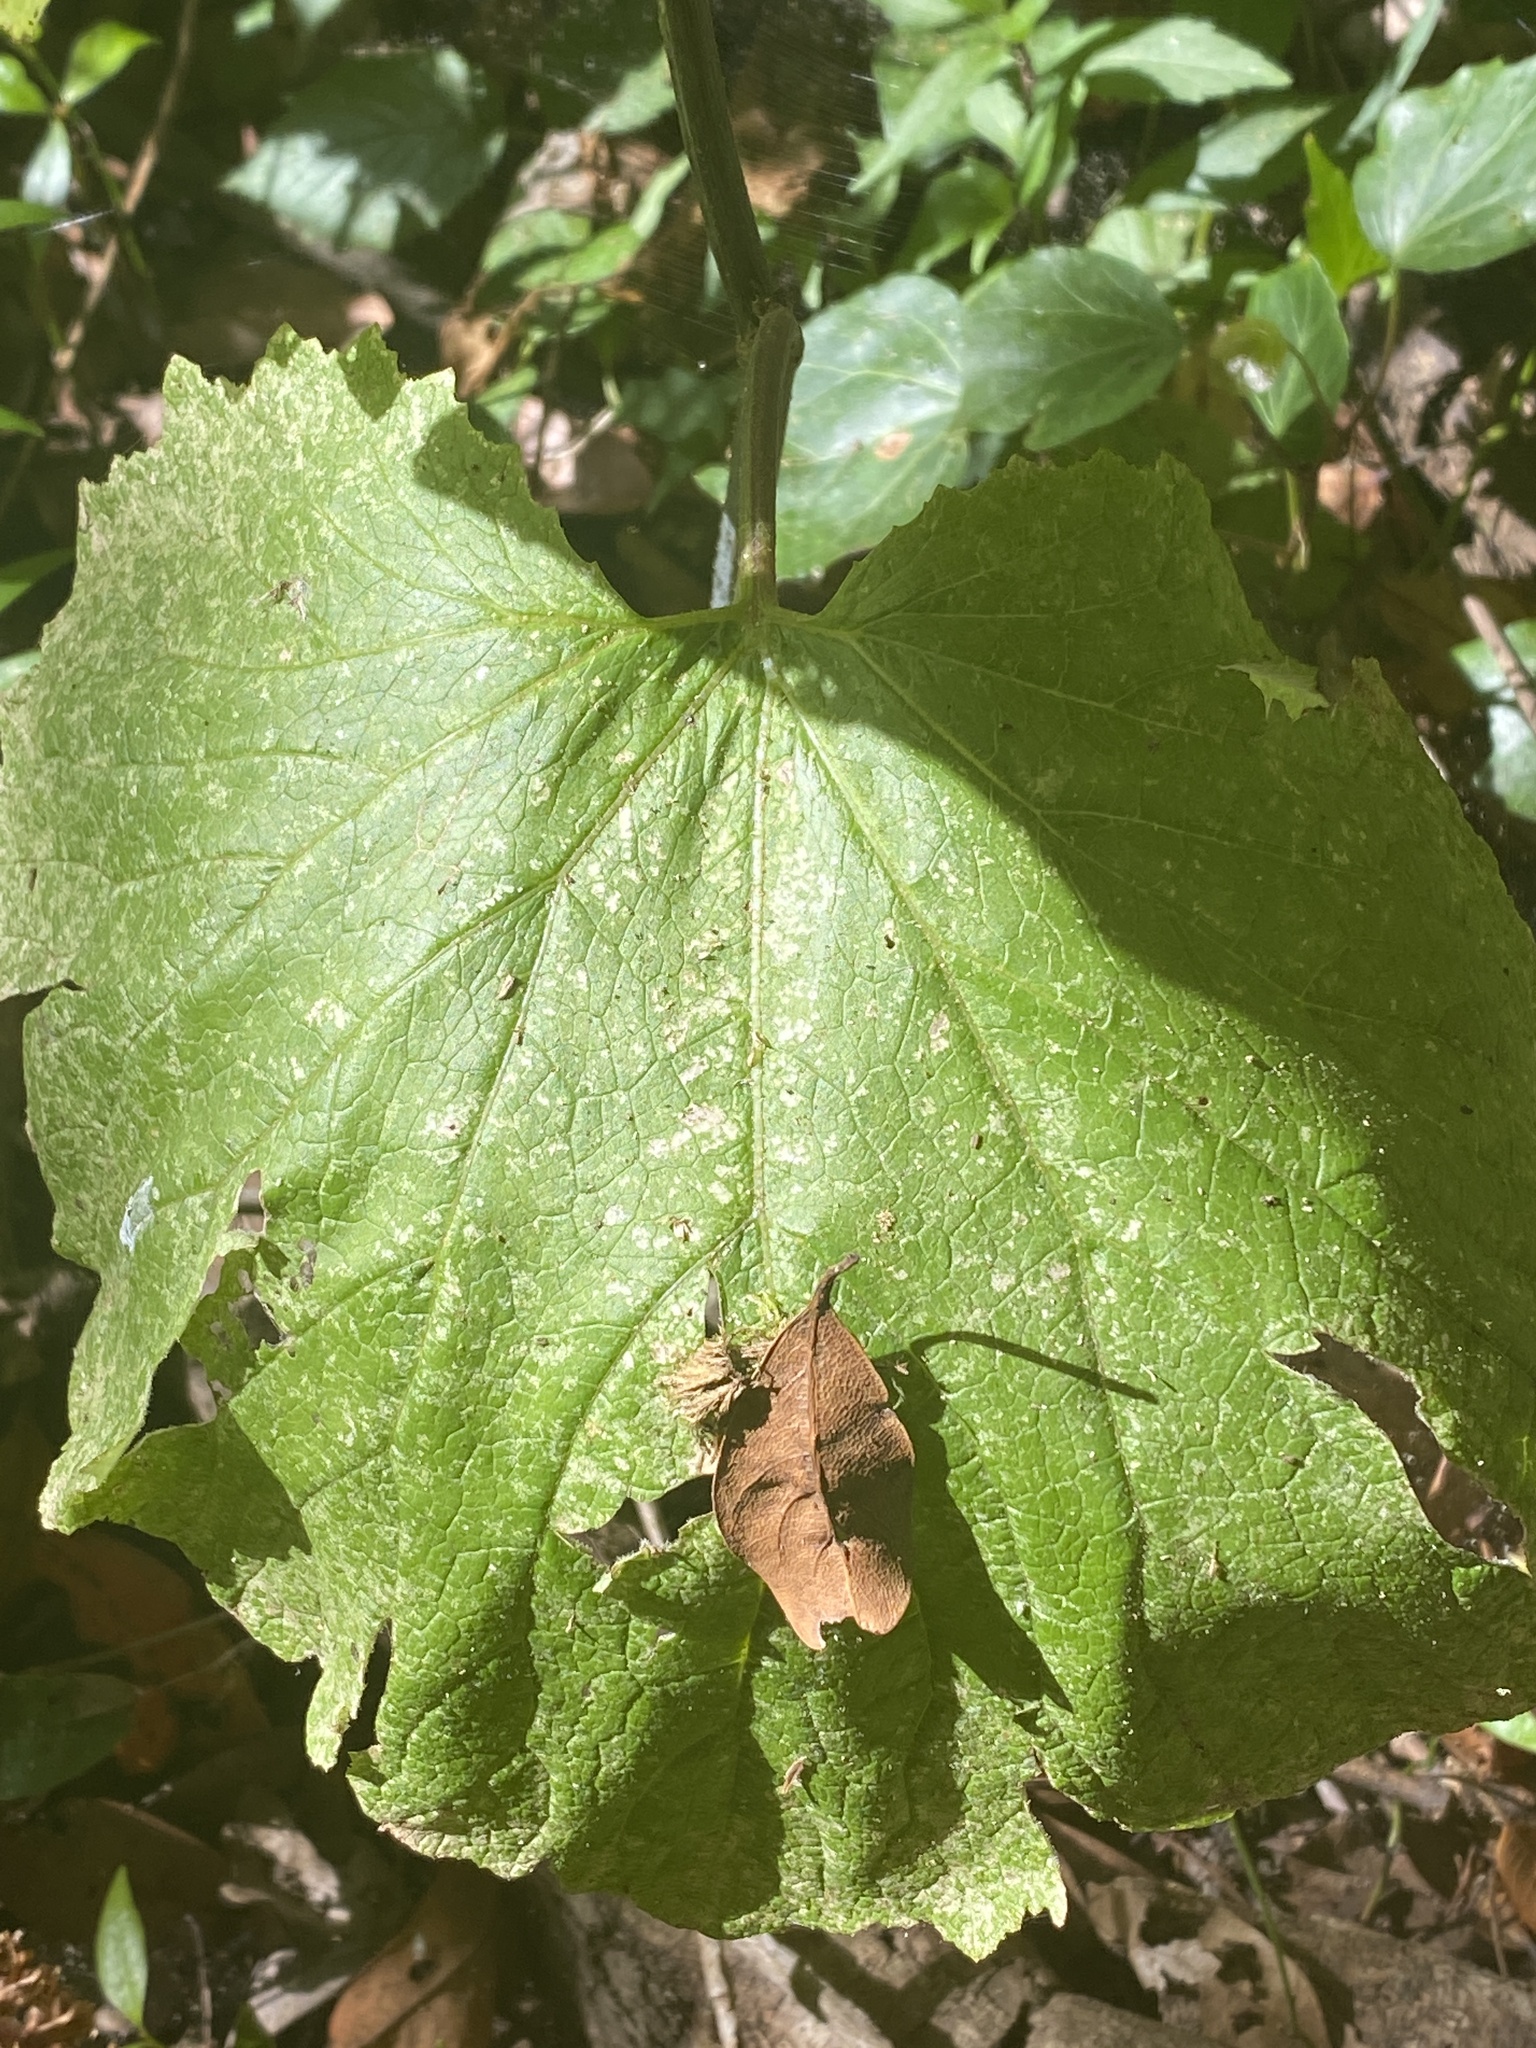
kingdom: Plantae
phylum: Tracheophyta
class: Magnoliopsida
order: Asterales
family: Asteraceae
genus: Pericallis
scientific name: Pericallis papyracea
